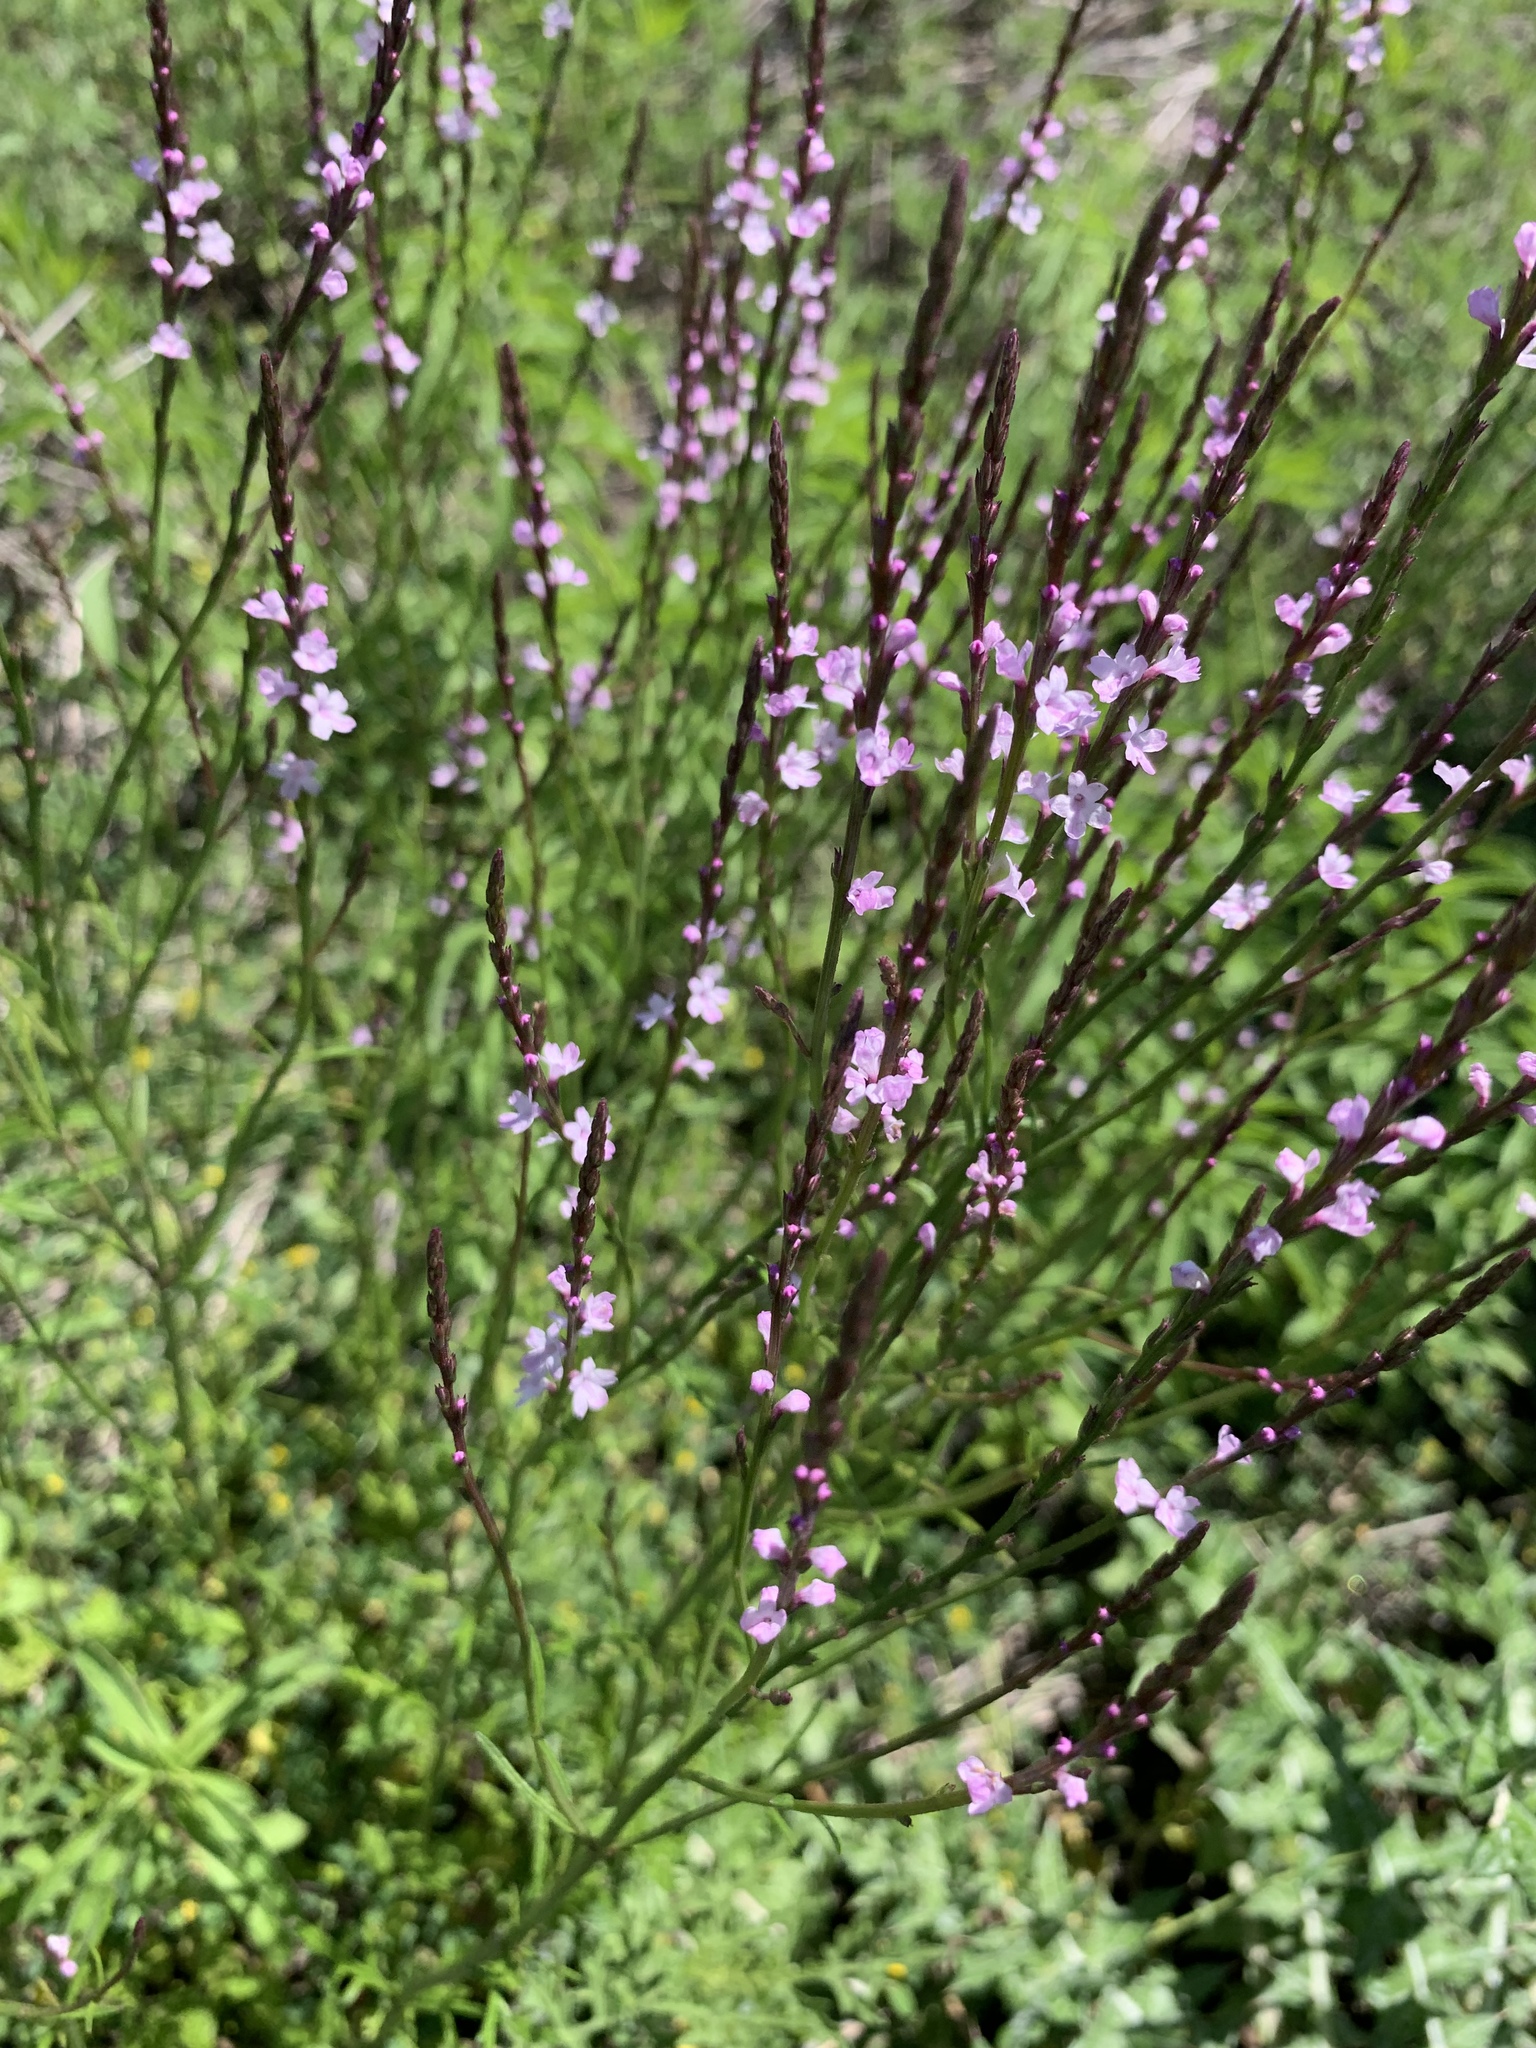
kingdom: Plantae
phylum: Tracheophyta
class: Magnoliopsida
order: Lamiales
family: Verbenaceae
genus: Verbena
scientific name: Verbena halei
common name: Texas vervain
